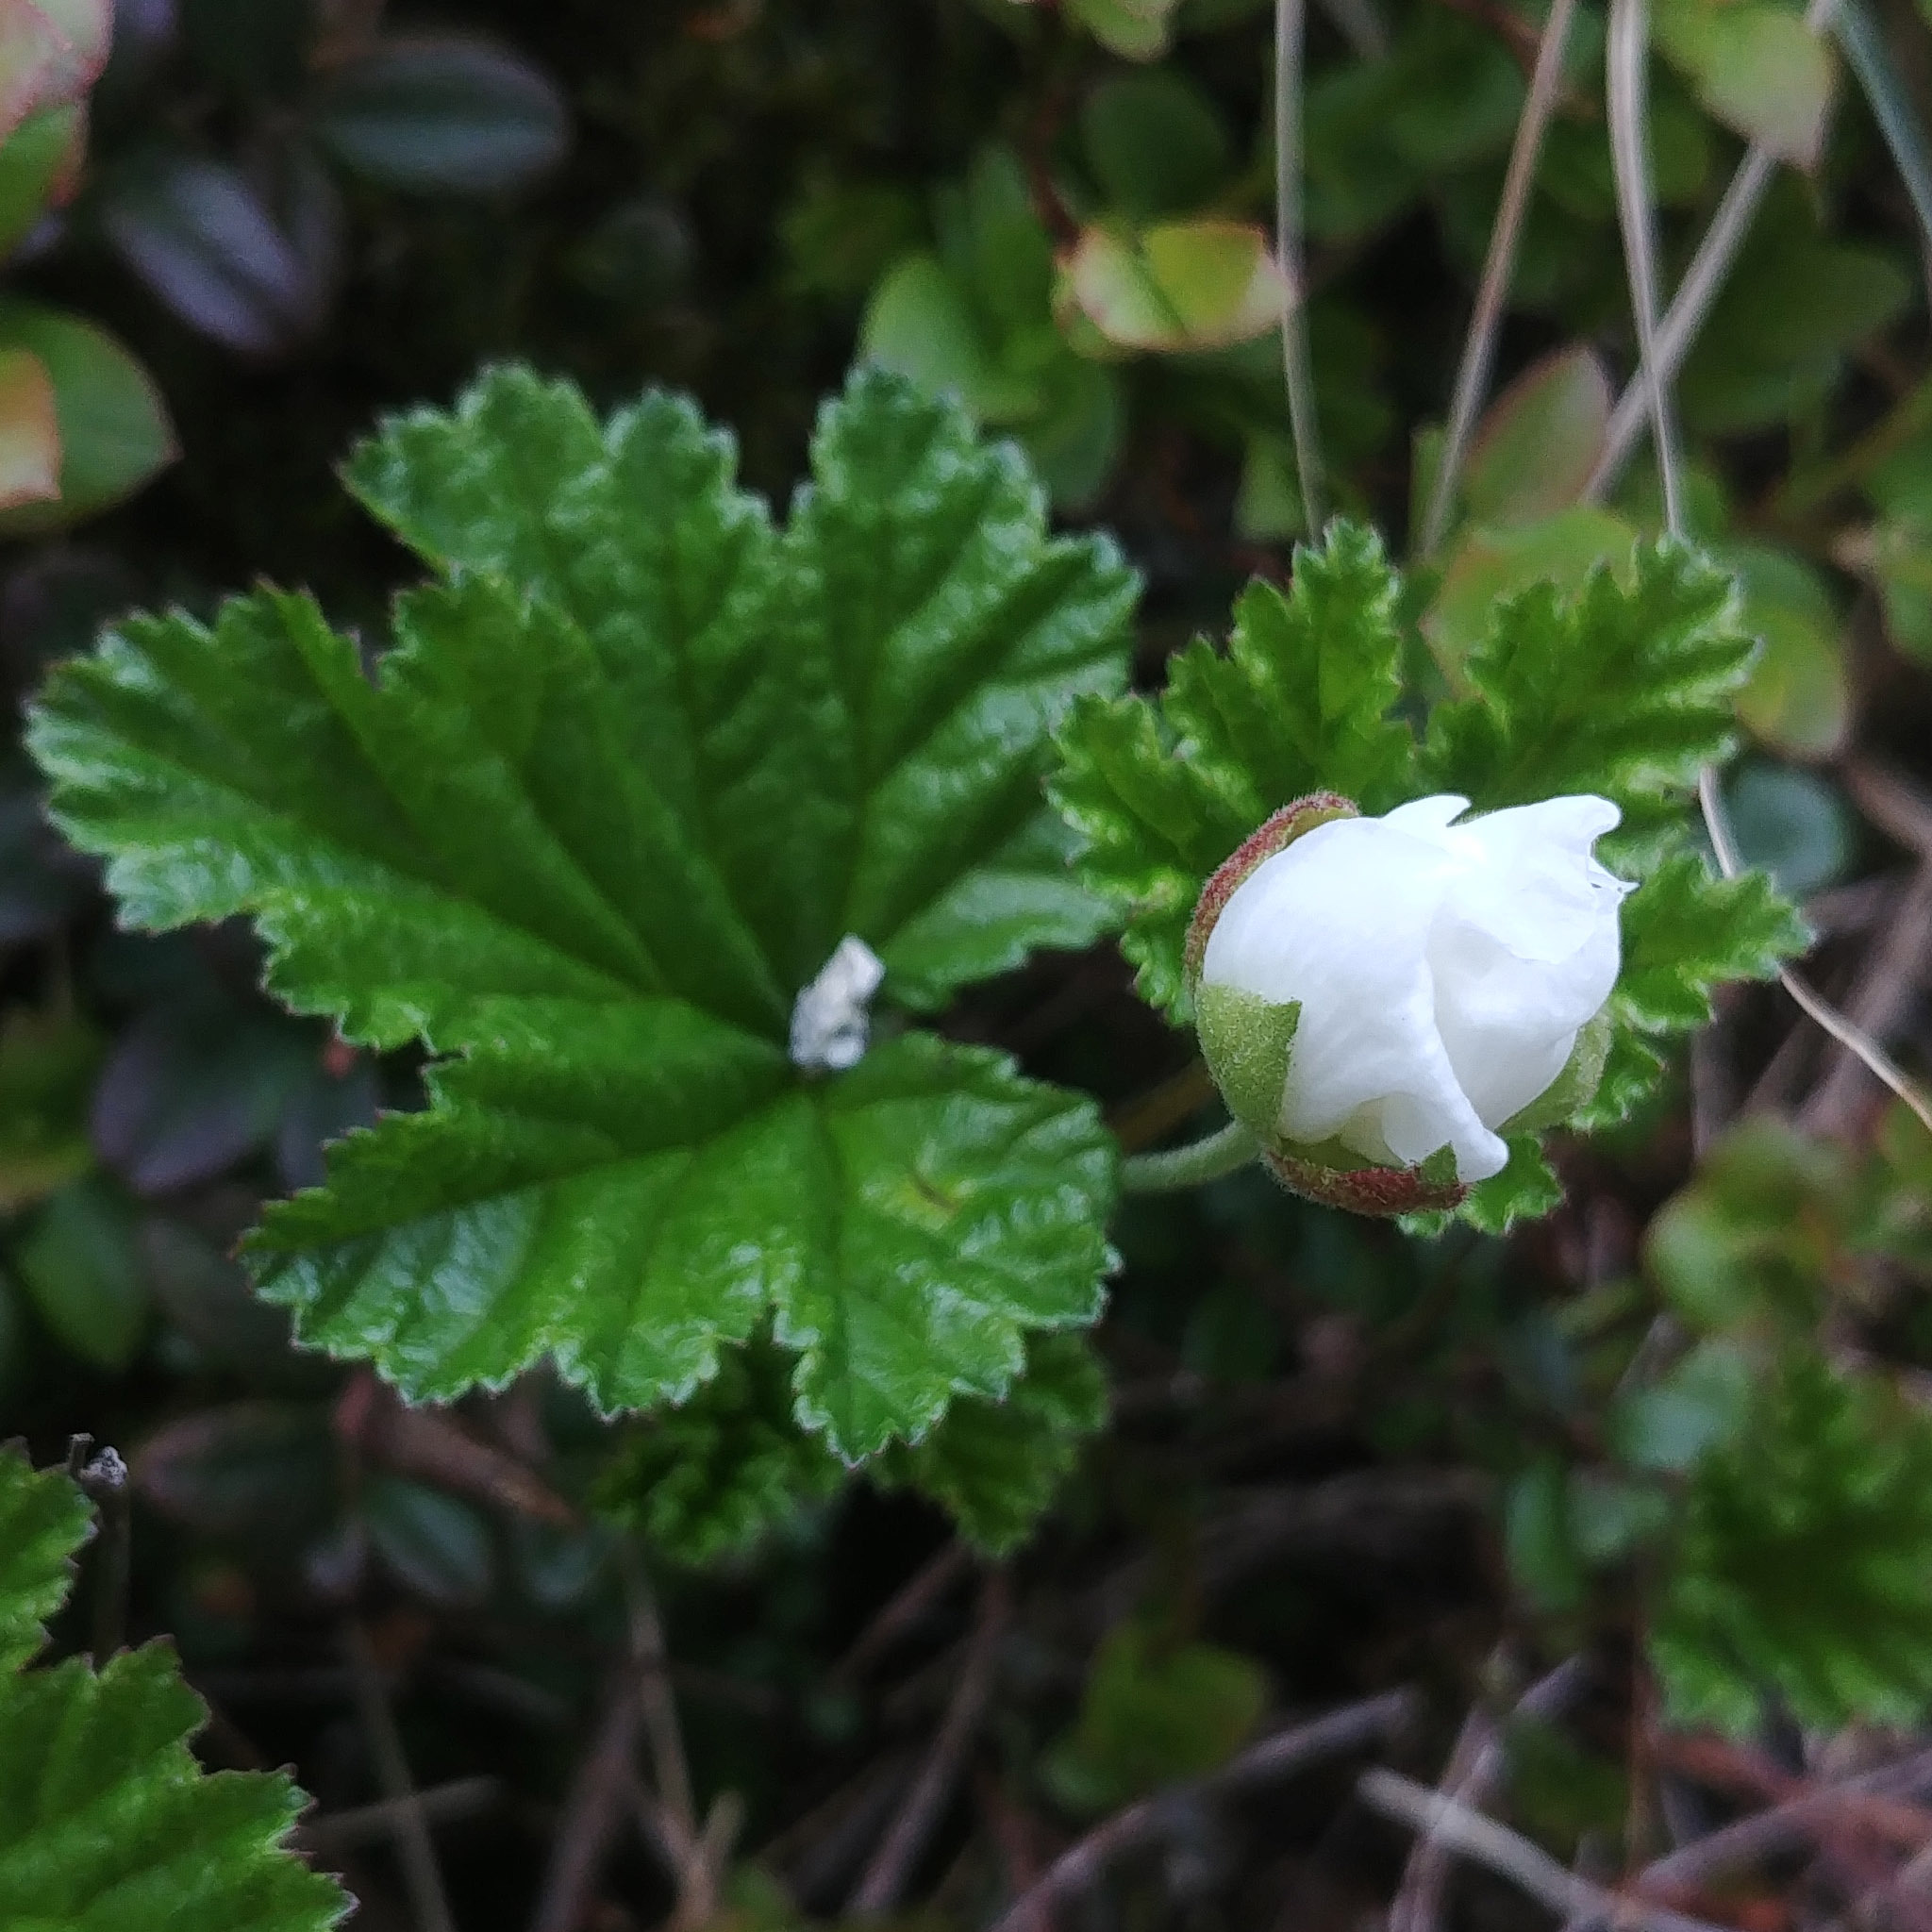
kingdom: Plantae
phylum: Tracheophyta
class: Magnoliopsida
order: Rosales
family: Rosaceae
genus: Rubus
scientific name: Rubus chamaemorus
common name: Cloudberry
